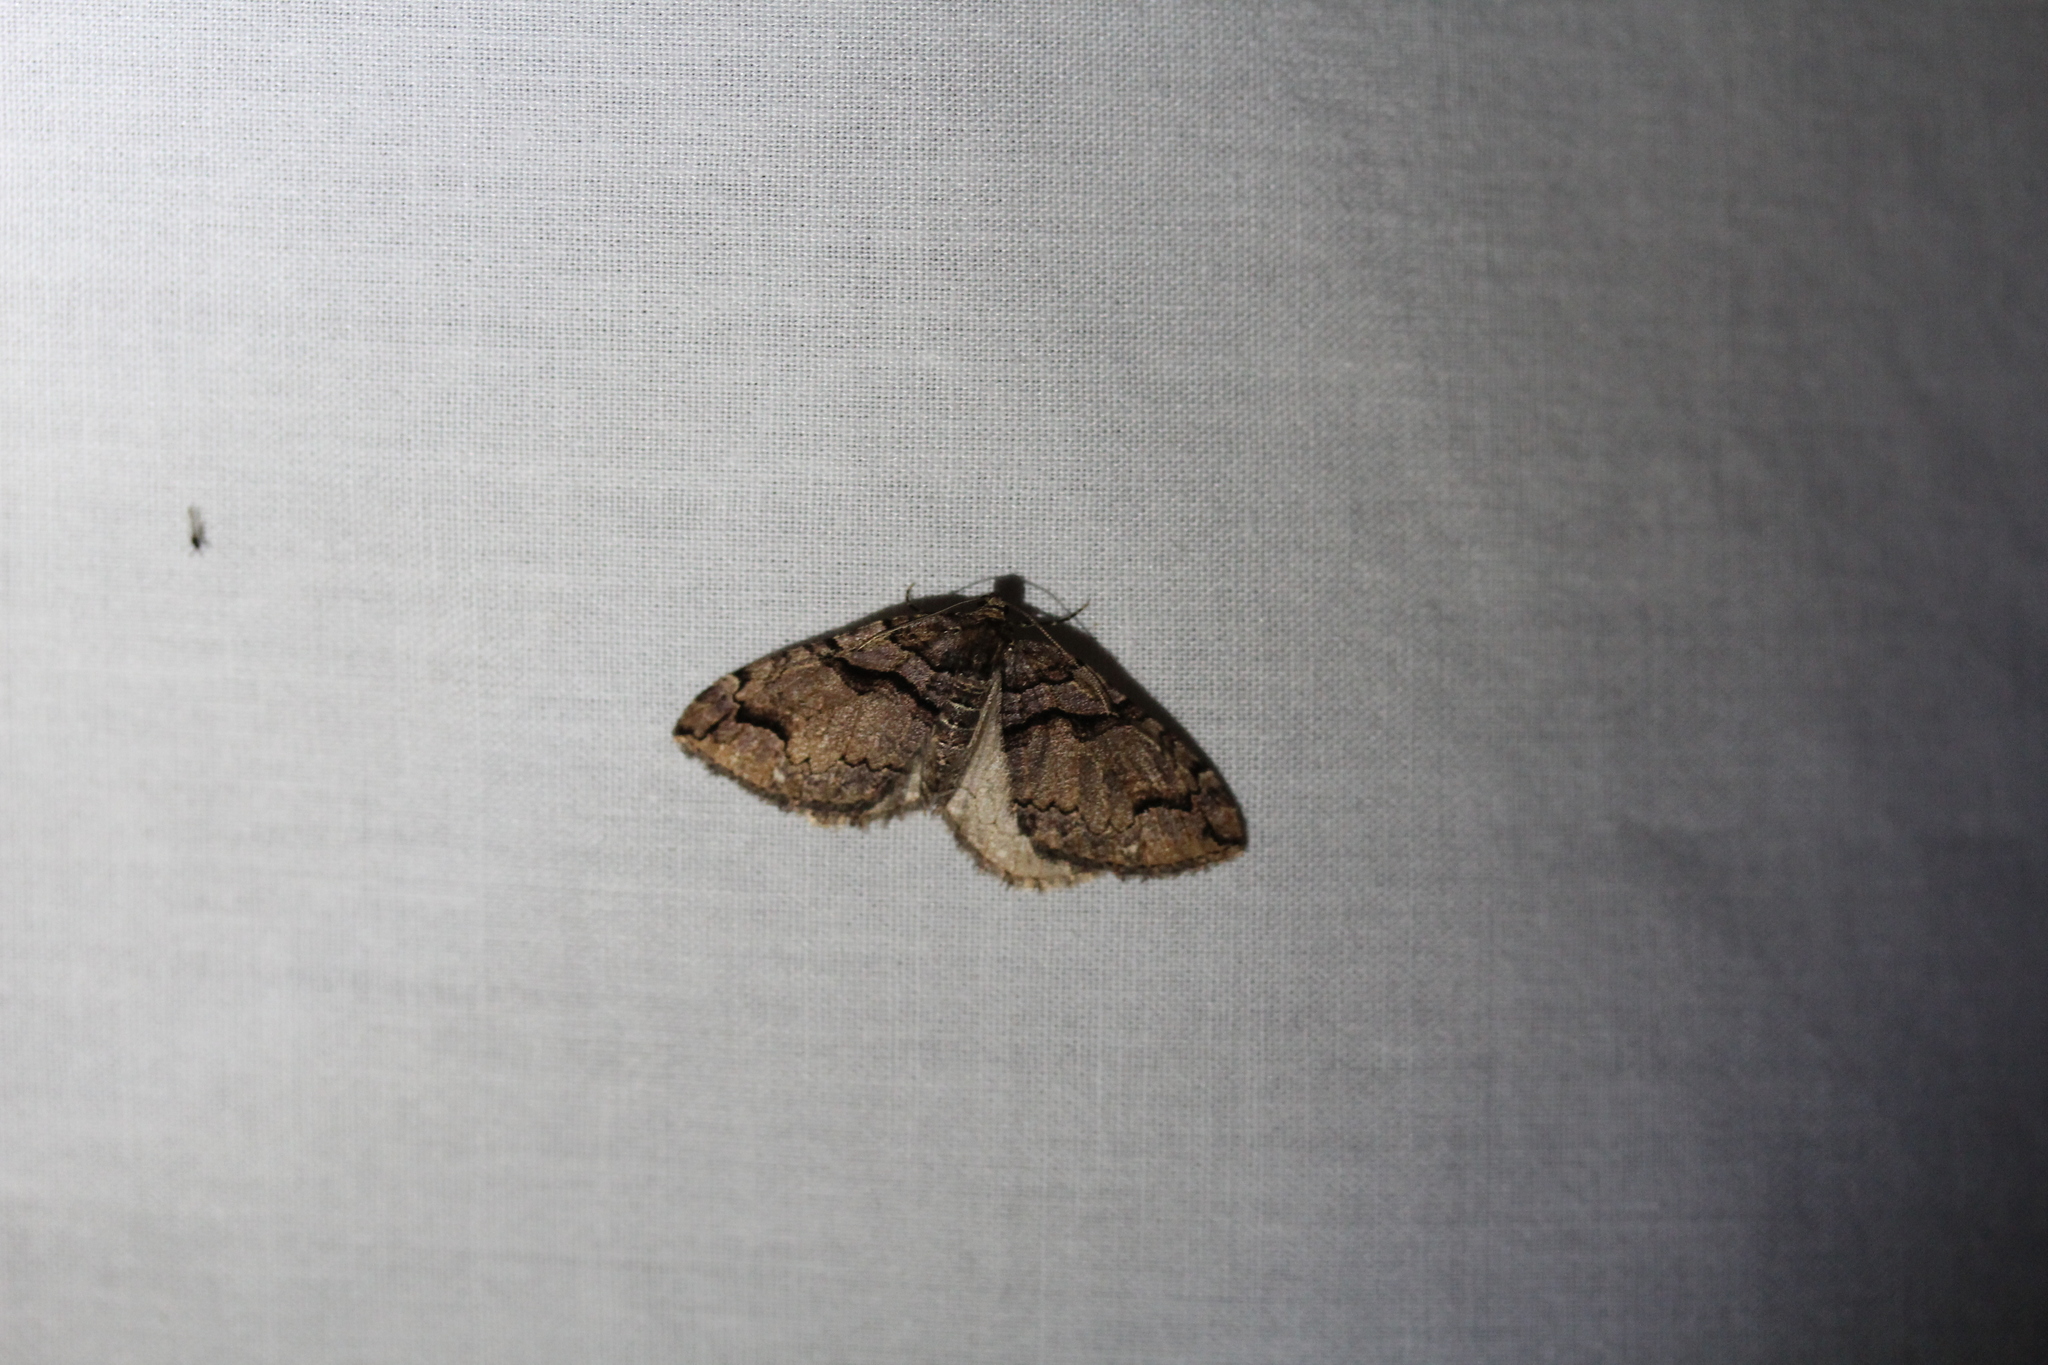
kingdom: Animalia
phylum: Arthropoda
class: Insecta
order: Lepidoptera
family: Geometridae
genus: Anticlea
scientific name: Anticlea vasiliata
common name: Variable carpet
